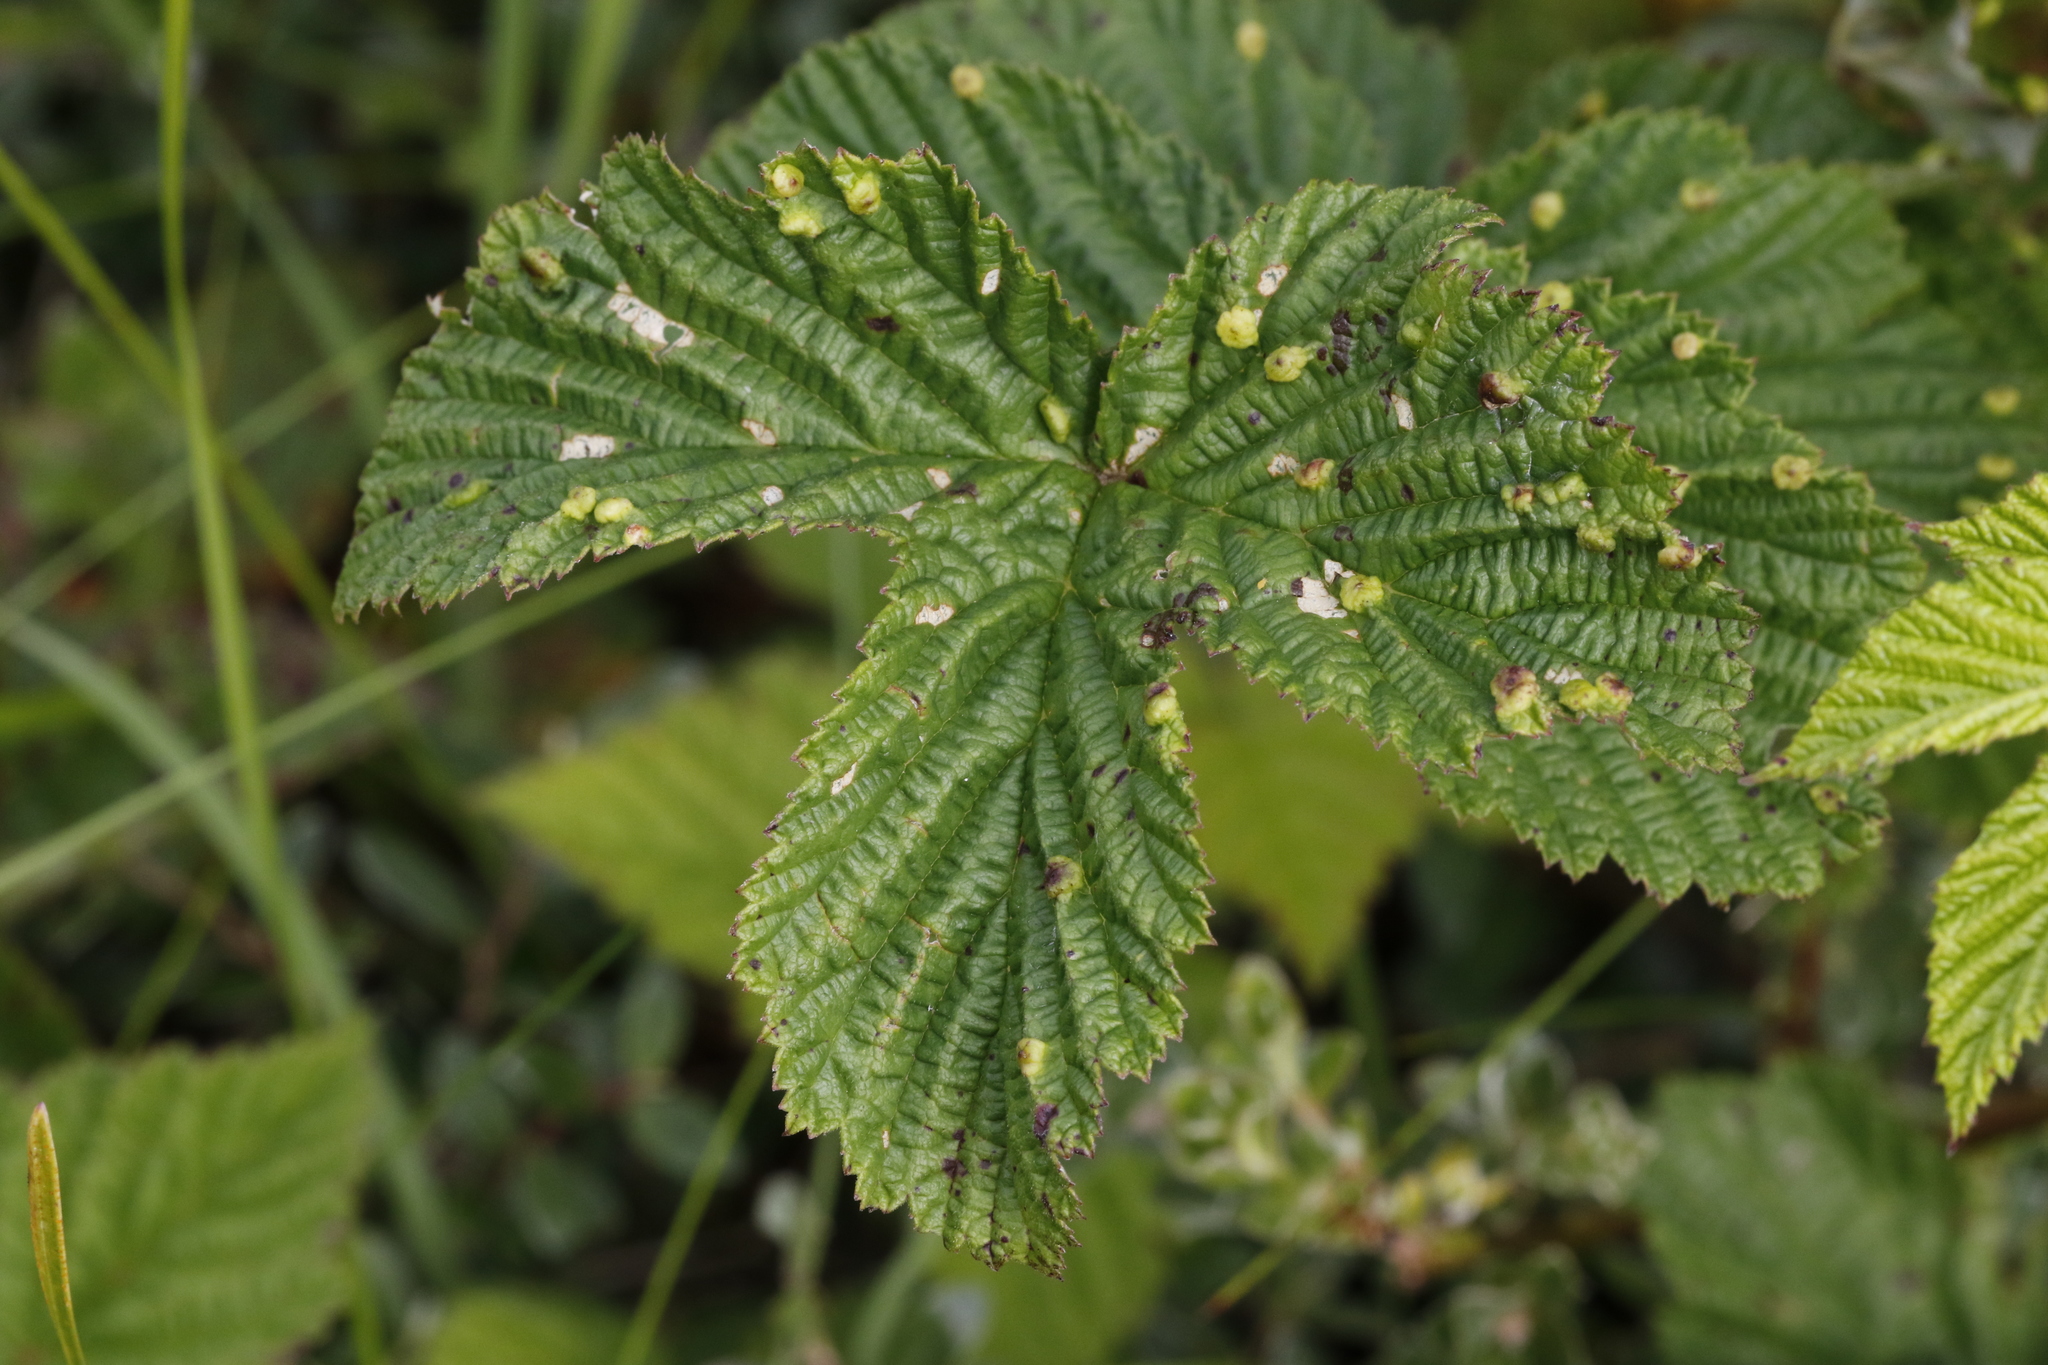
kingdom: Animalia
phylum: Arthropoda
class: Insecta
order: Diptera
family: Cecidomyiidae
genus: Dasineura
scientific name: Dasineura ulmaria
